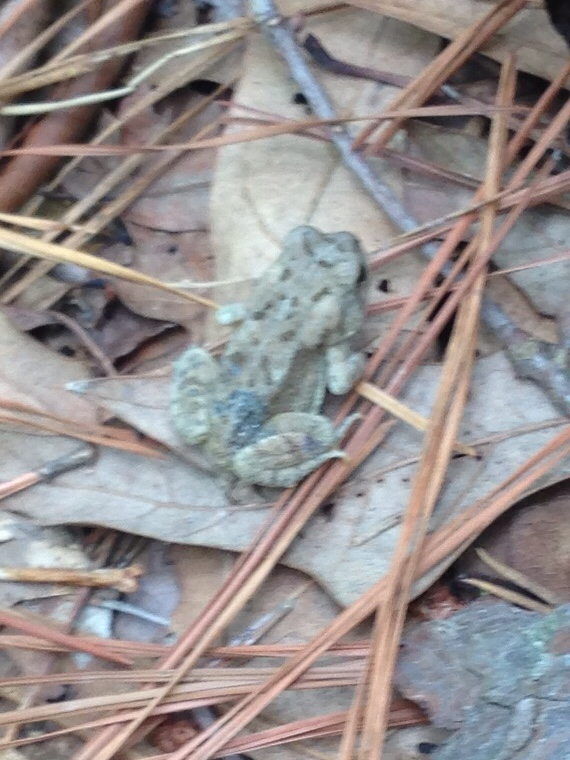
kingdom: Animalia
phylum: Chordata
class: Amphibia
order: Anura
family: Bufonidae
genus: Anaxyrus
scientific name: Anaxyrus fowleri
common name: Fowler's toad
